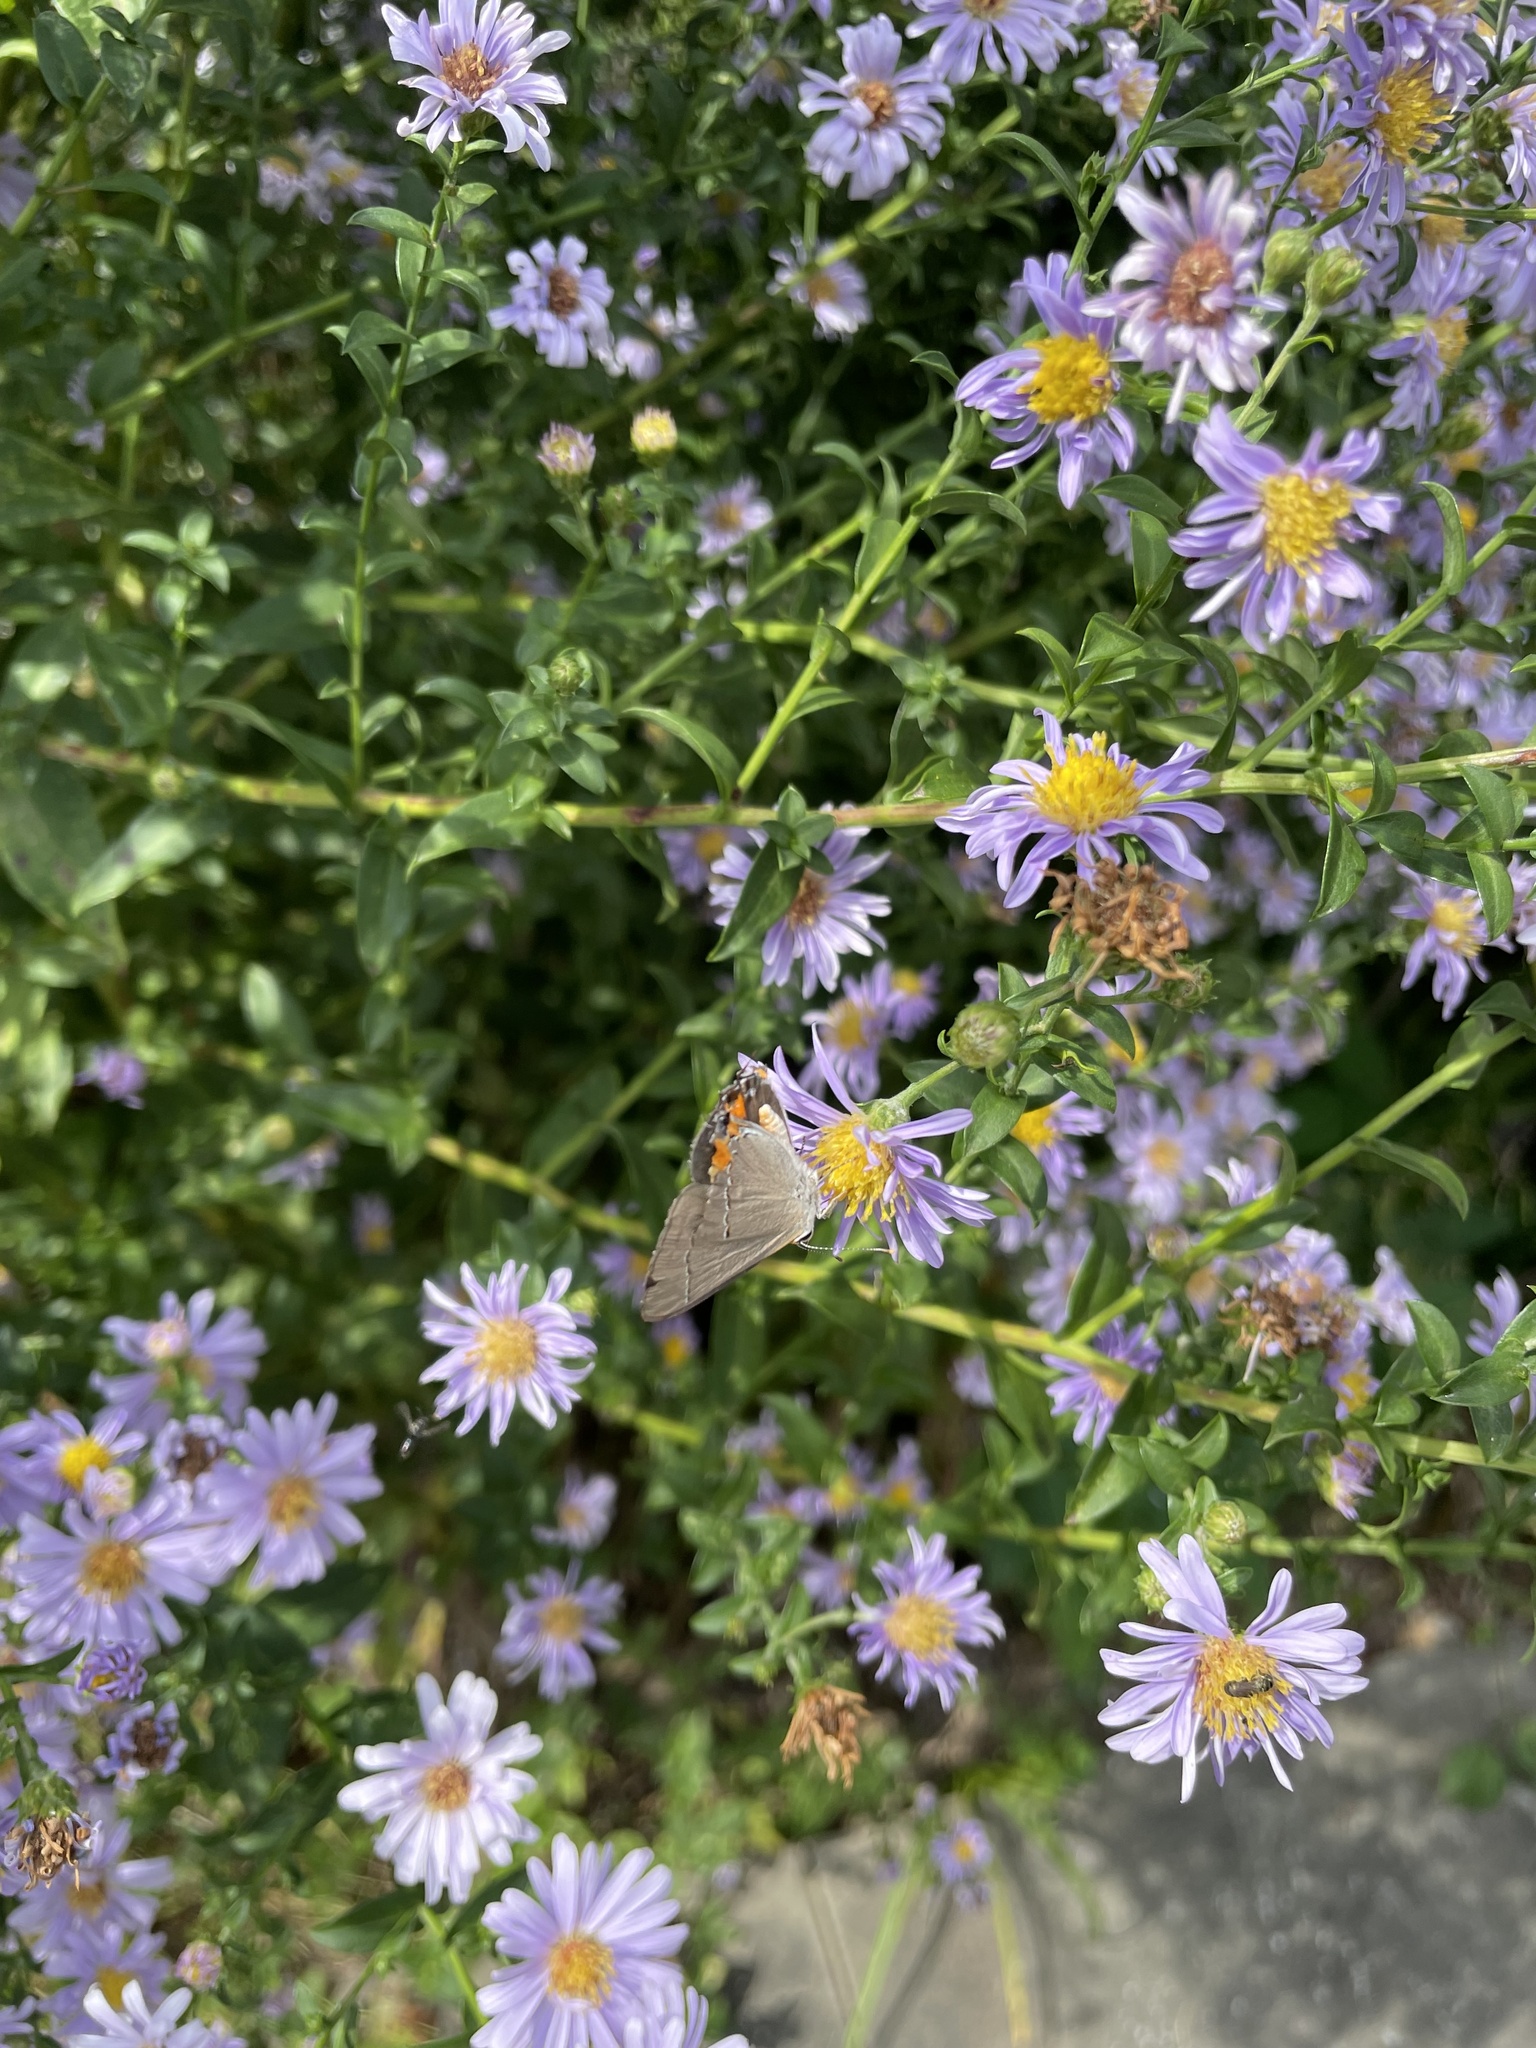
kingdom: Animalia
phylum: Arthropoda
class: Insecta
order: Lepidoptera
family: Lycaenidae
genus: Strymon
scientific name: Strymon melinus
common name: Gray hairstreak
